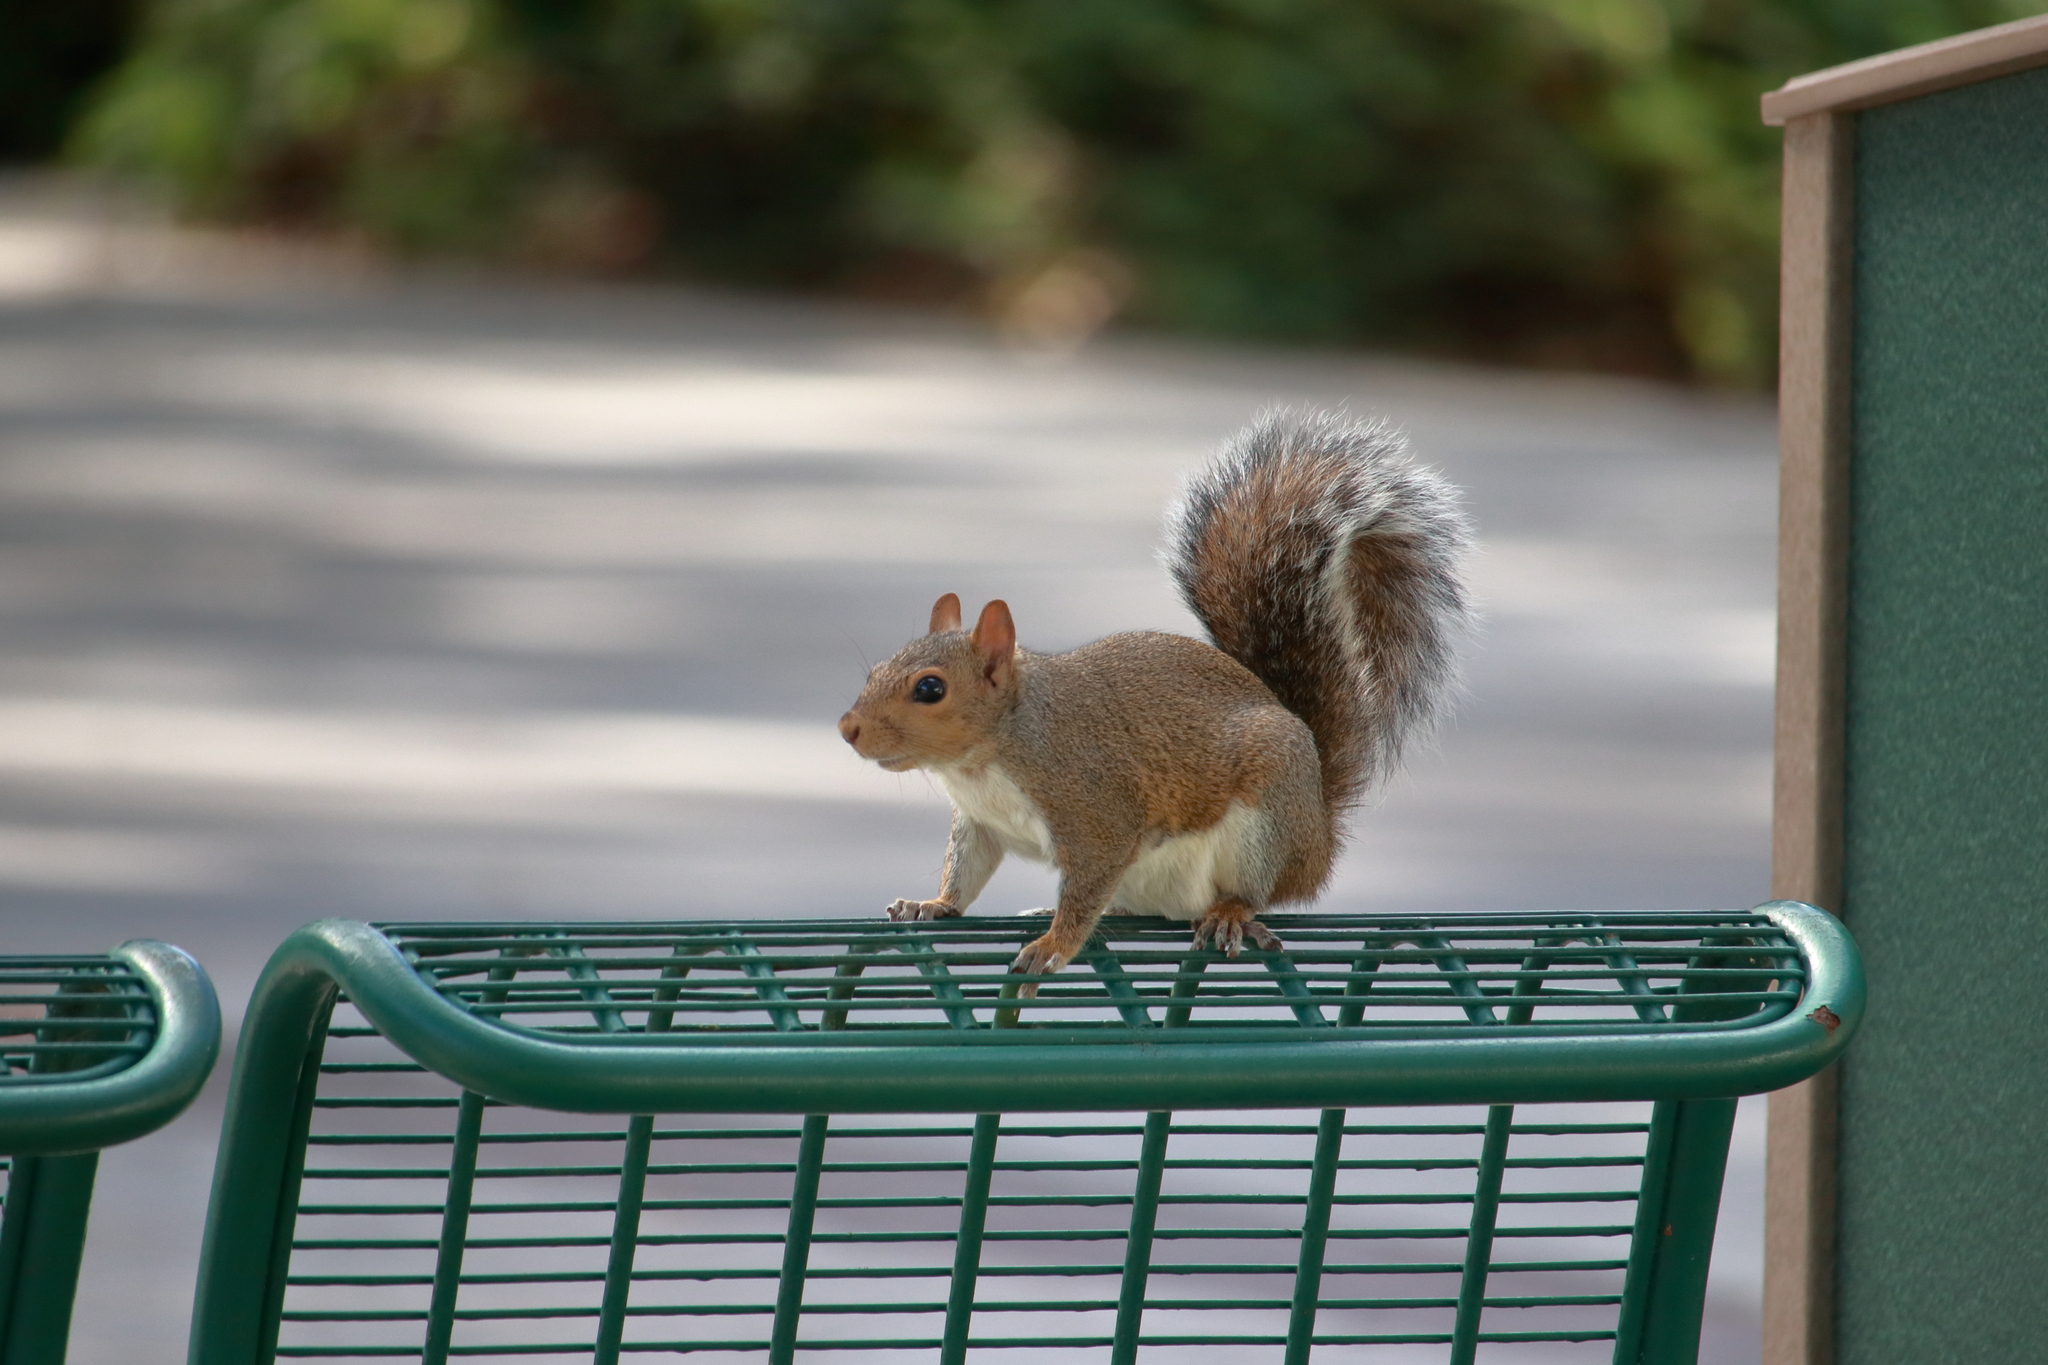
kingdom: Animalia
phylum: Chordata
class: Mammalia
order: Rodentia
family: Sciuridae
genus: Sciurus
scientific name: Sciurus carolinensis
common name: Eastern gray squirrel
